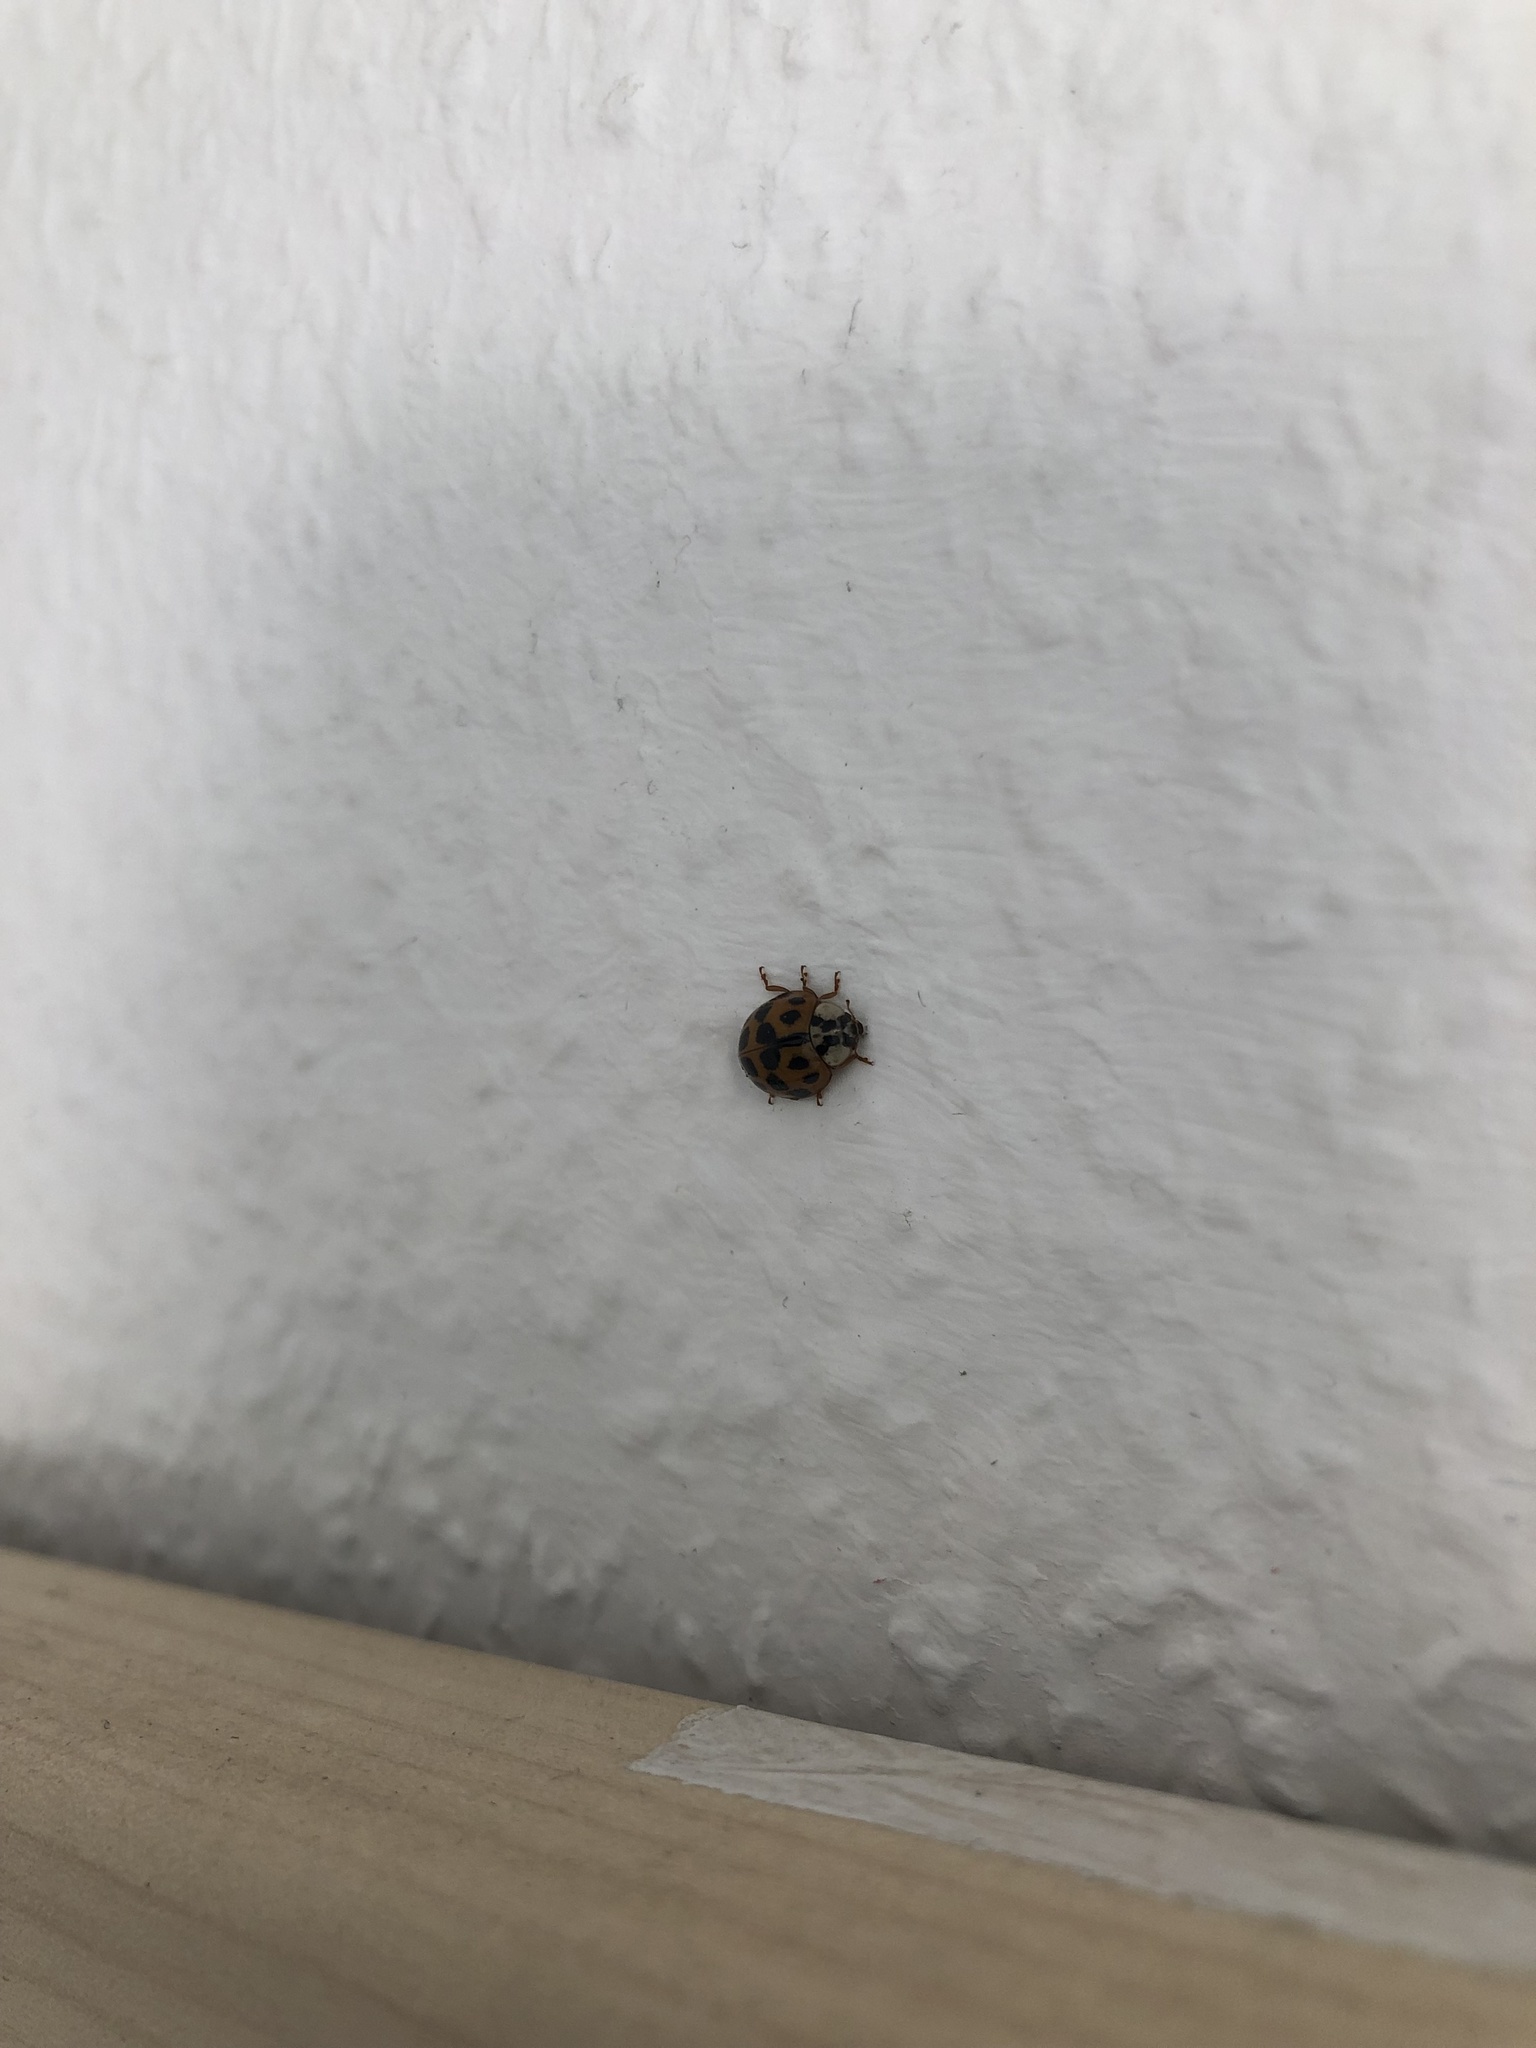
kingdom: Animalia
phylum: Arthropoda
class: Insecta
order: Coleoptera
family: Coccinellidae
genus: Harmonia
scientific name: Harmonia axyridis
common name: Harlequin ladybird
